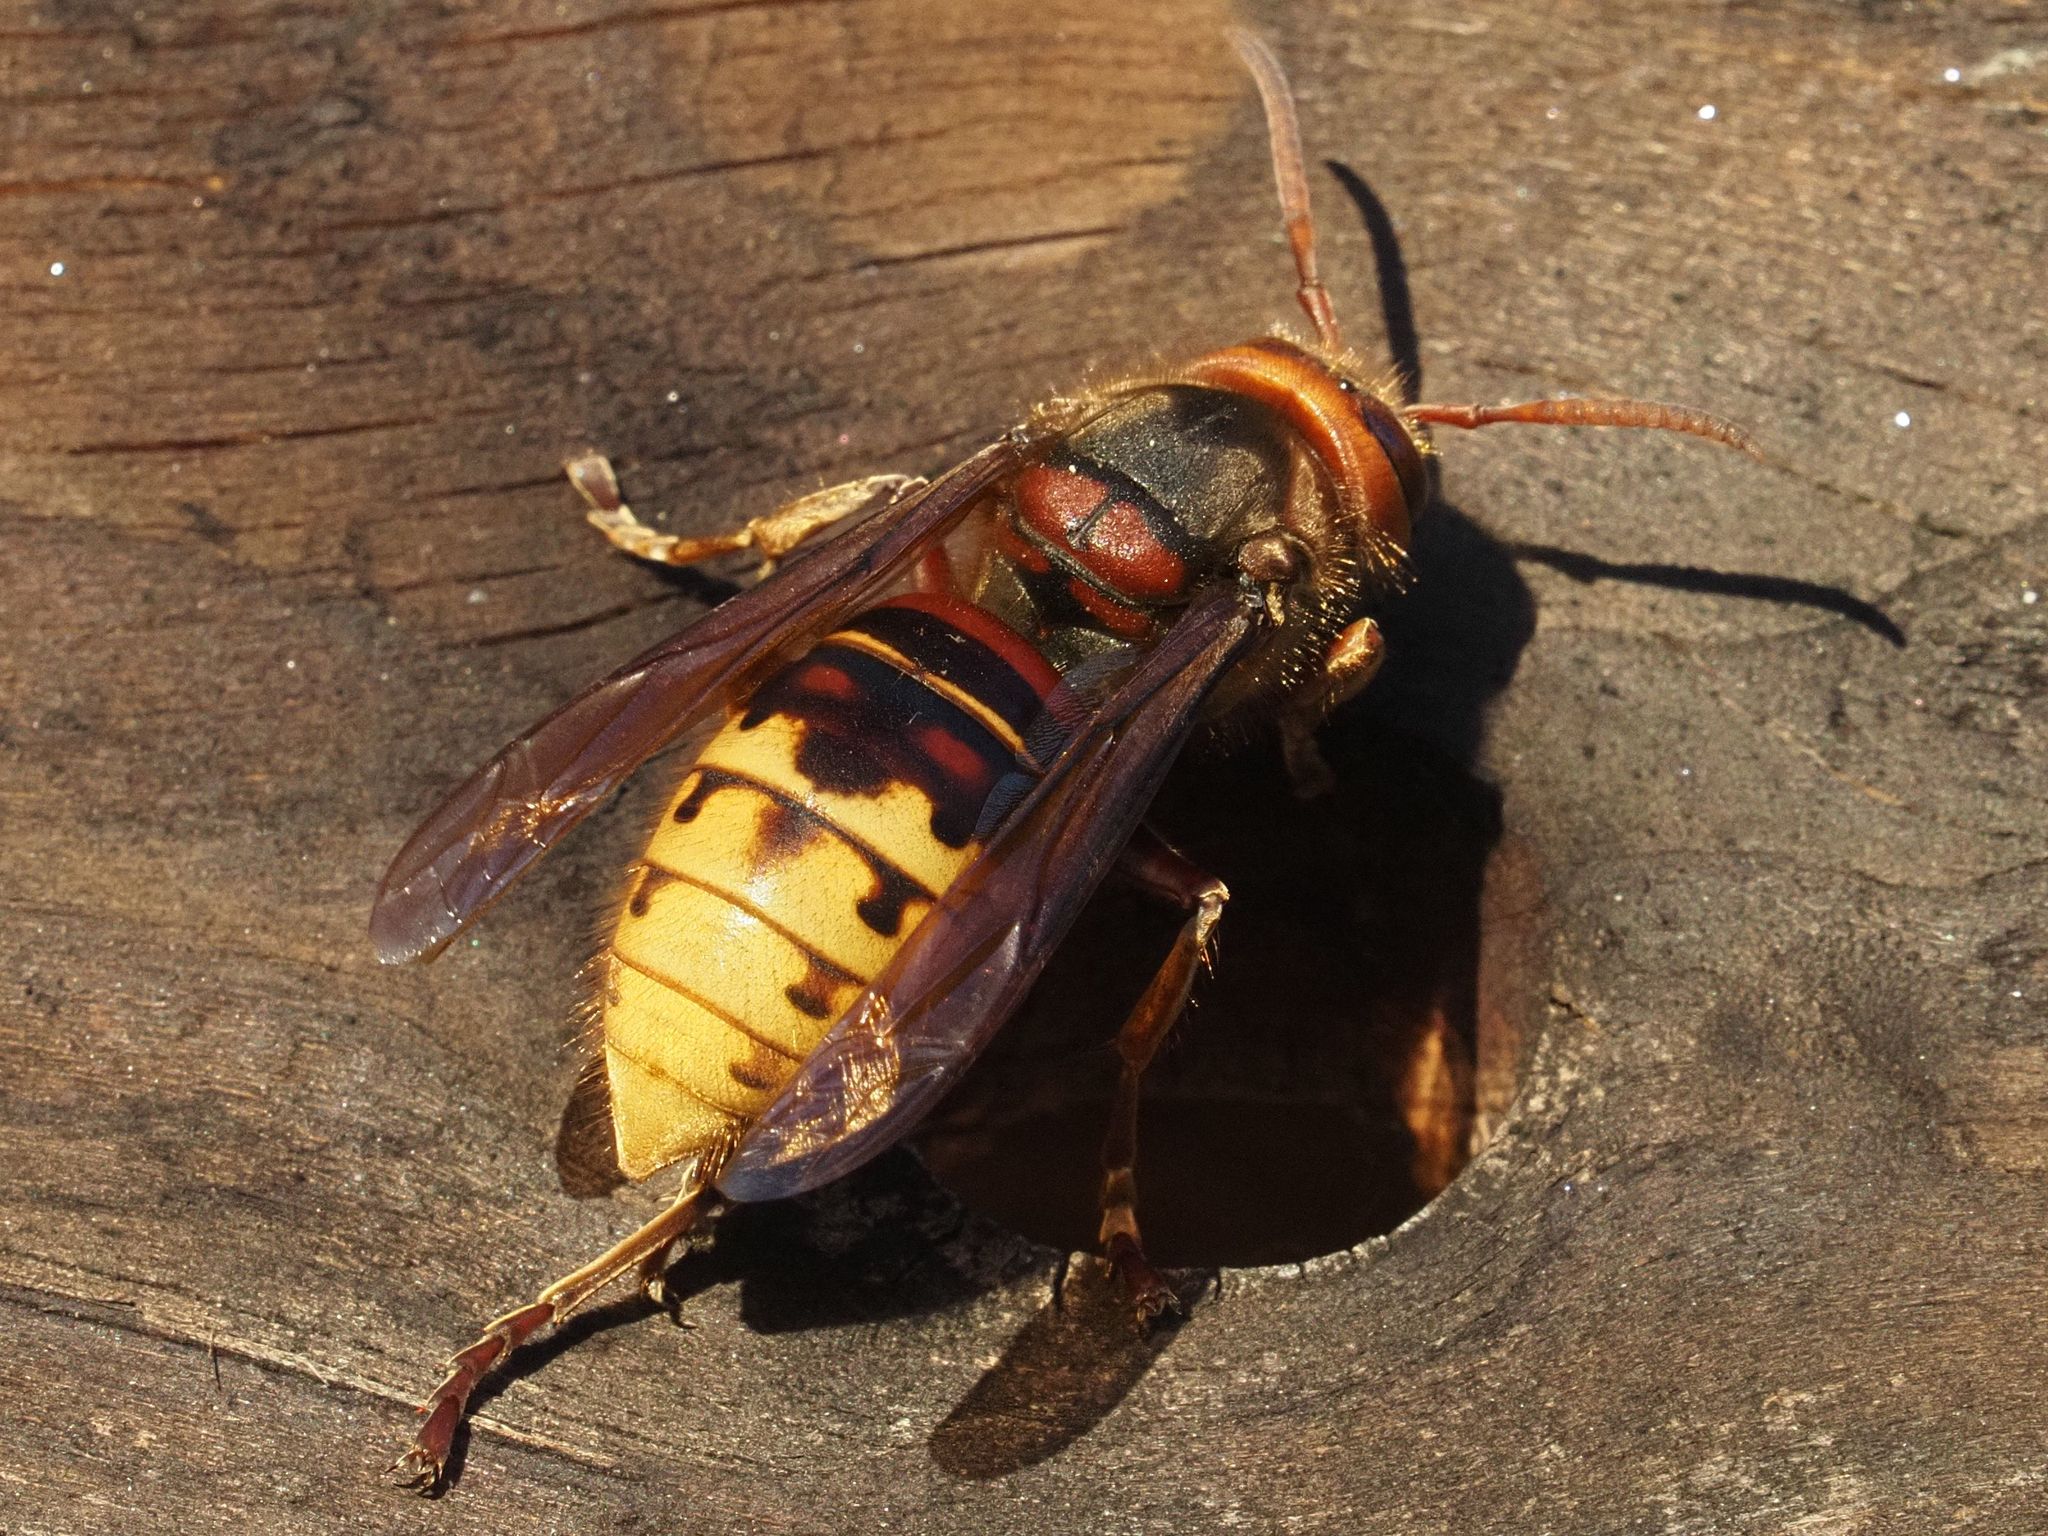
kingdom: Animalia
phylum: Arthropoda
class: Insecta
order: Hymenoptera
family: Vespidae
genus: Vespa
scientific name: Vespa crabro
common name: Hornet
